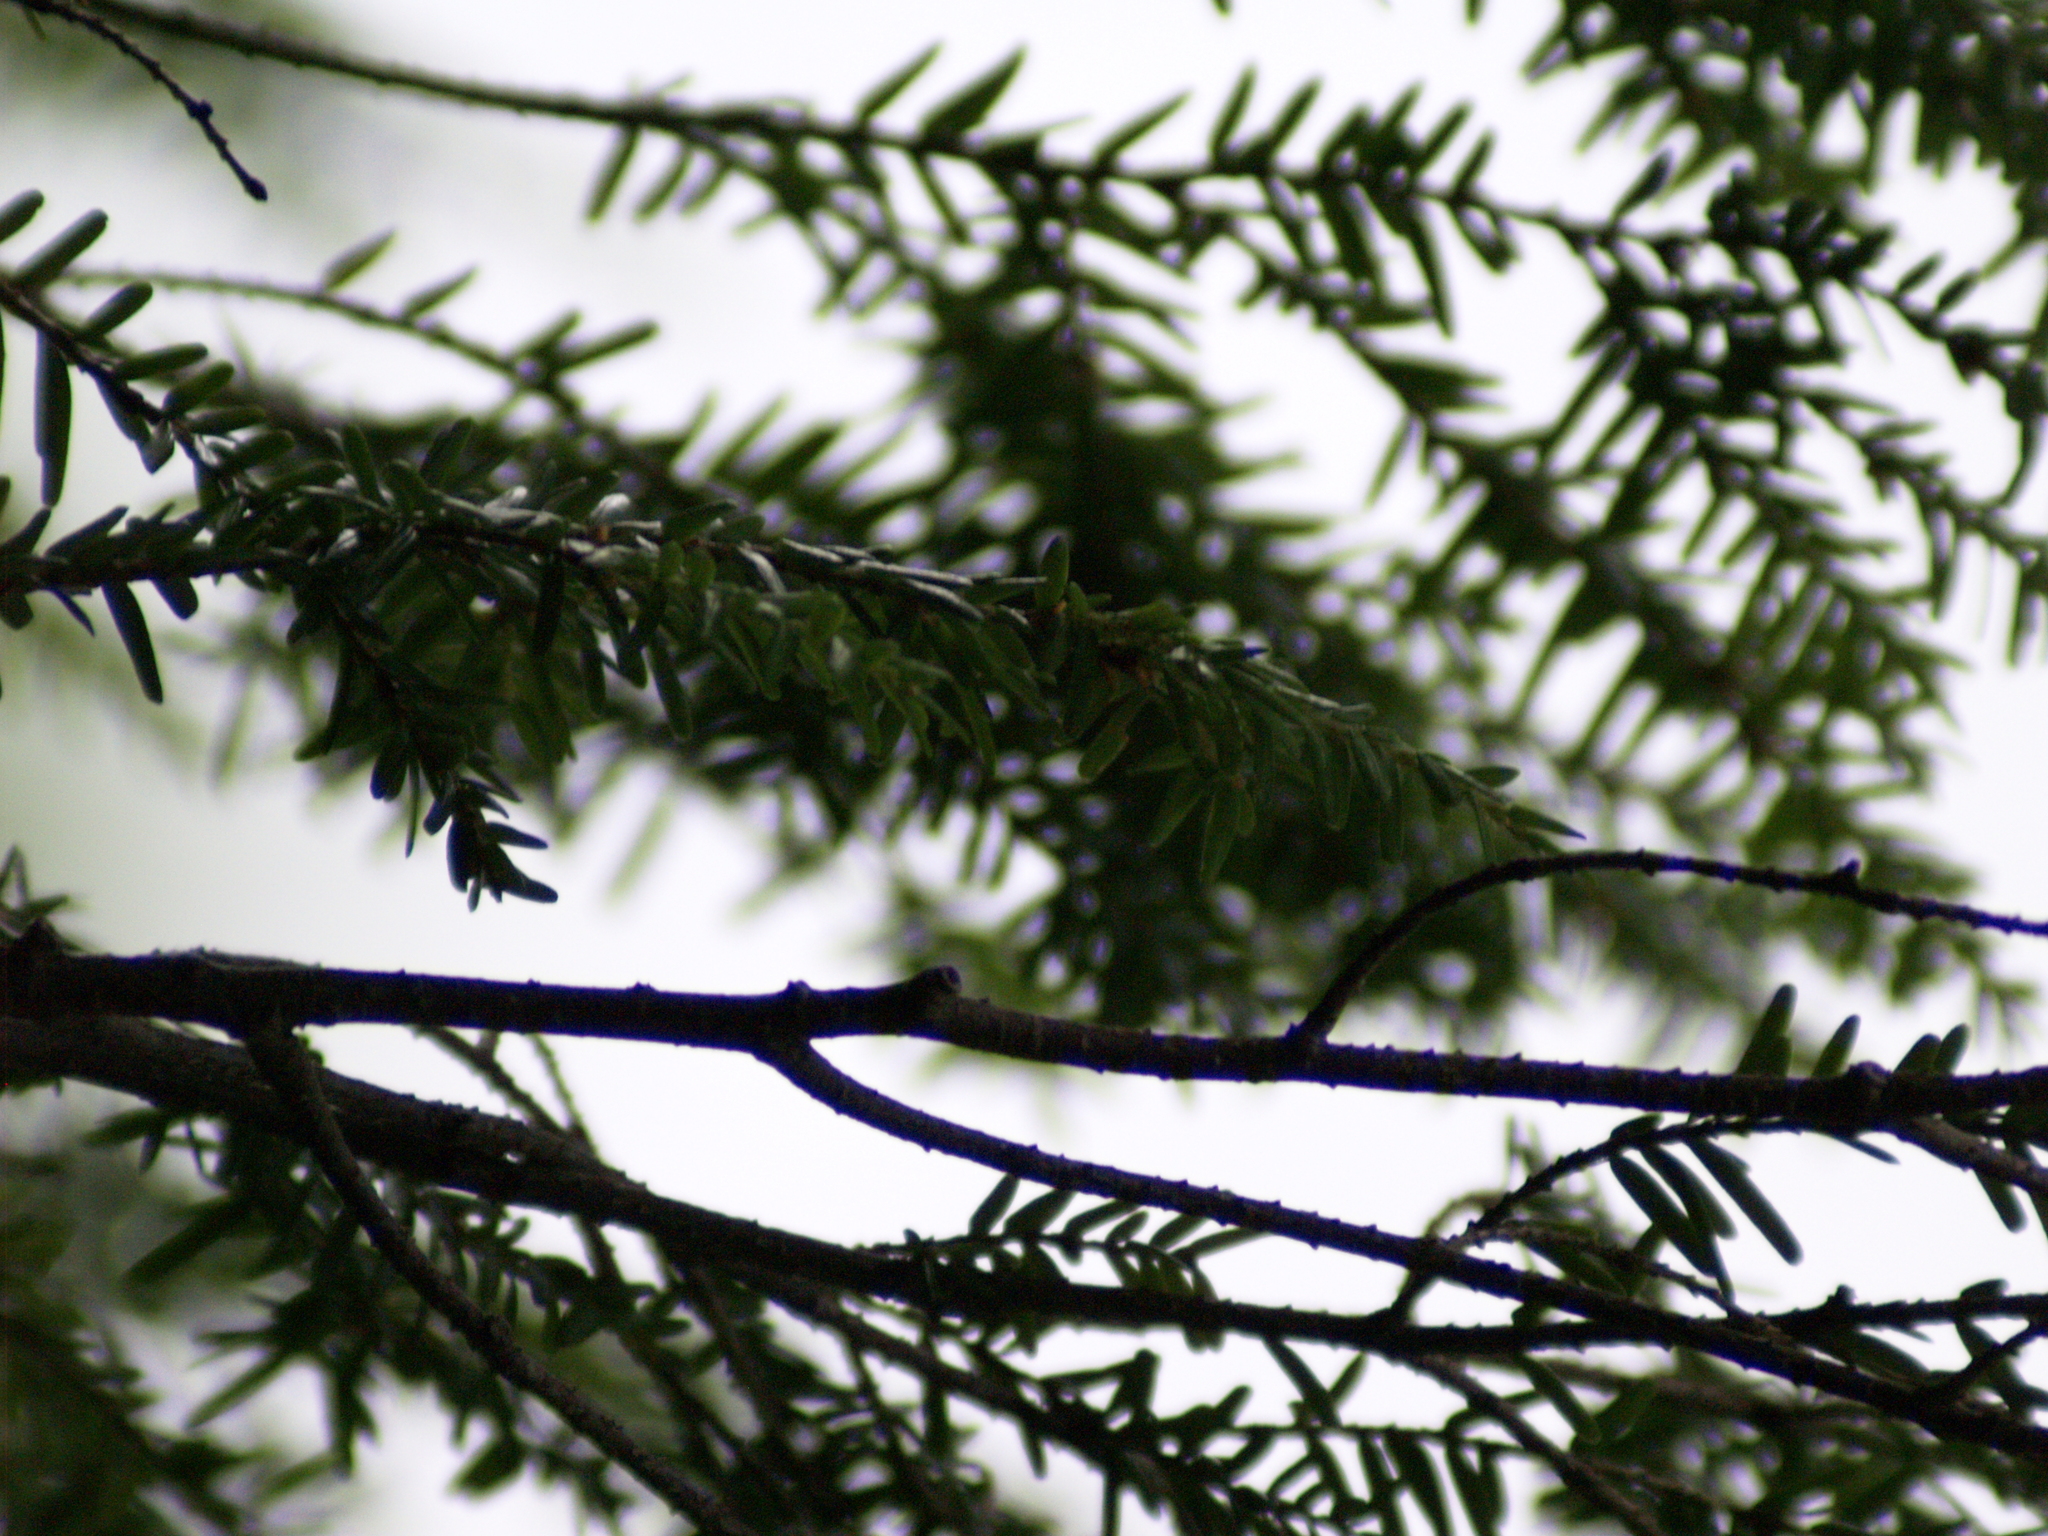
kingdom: Plantae
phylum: Tracheophyta
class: Pinopsida
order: Pinales
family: Pinaceae
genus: Tsuga
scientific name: Tsuga canadensis
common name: Eastern hemlock
